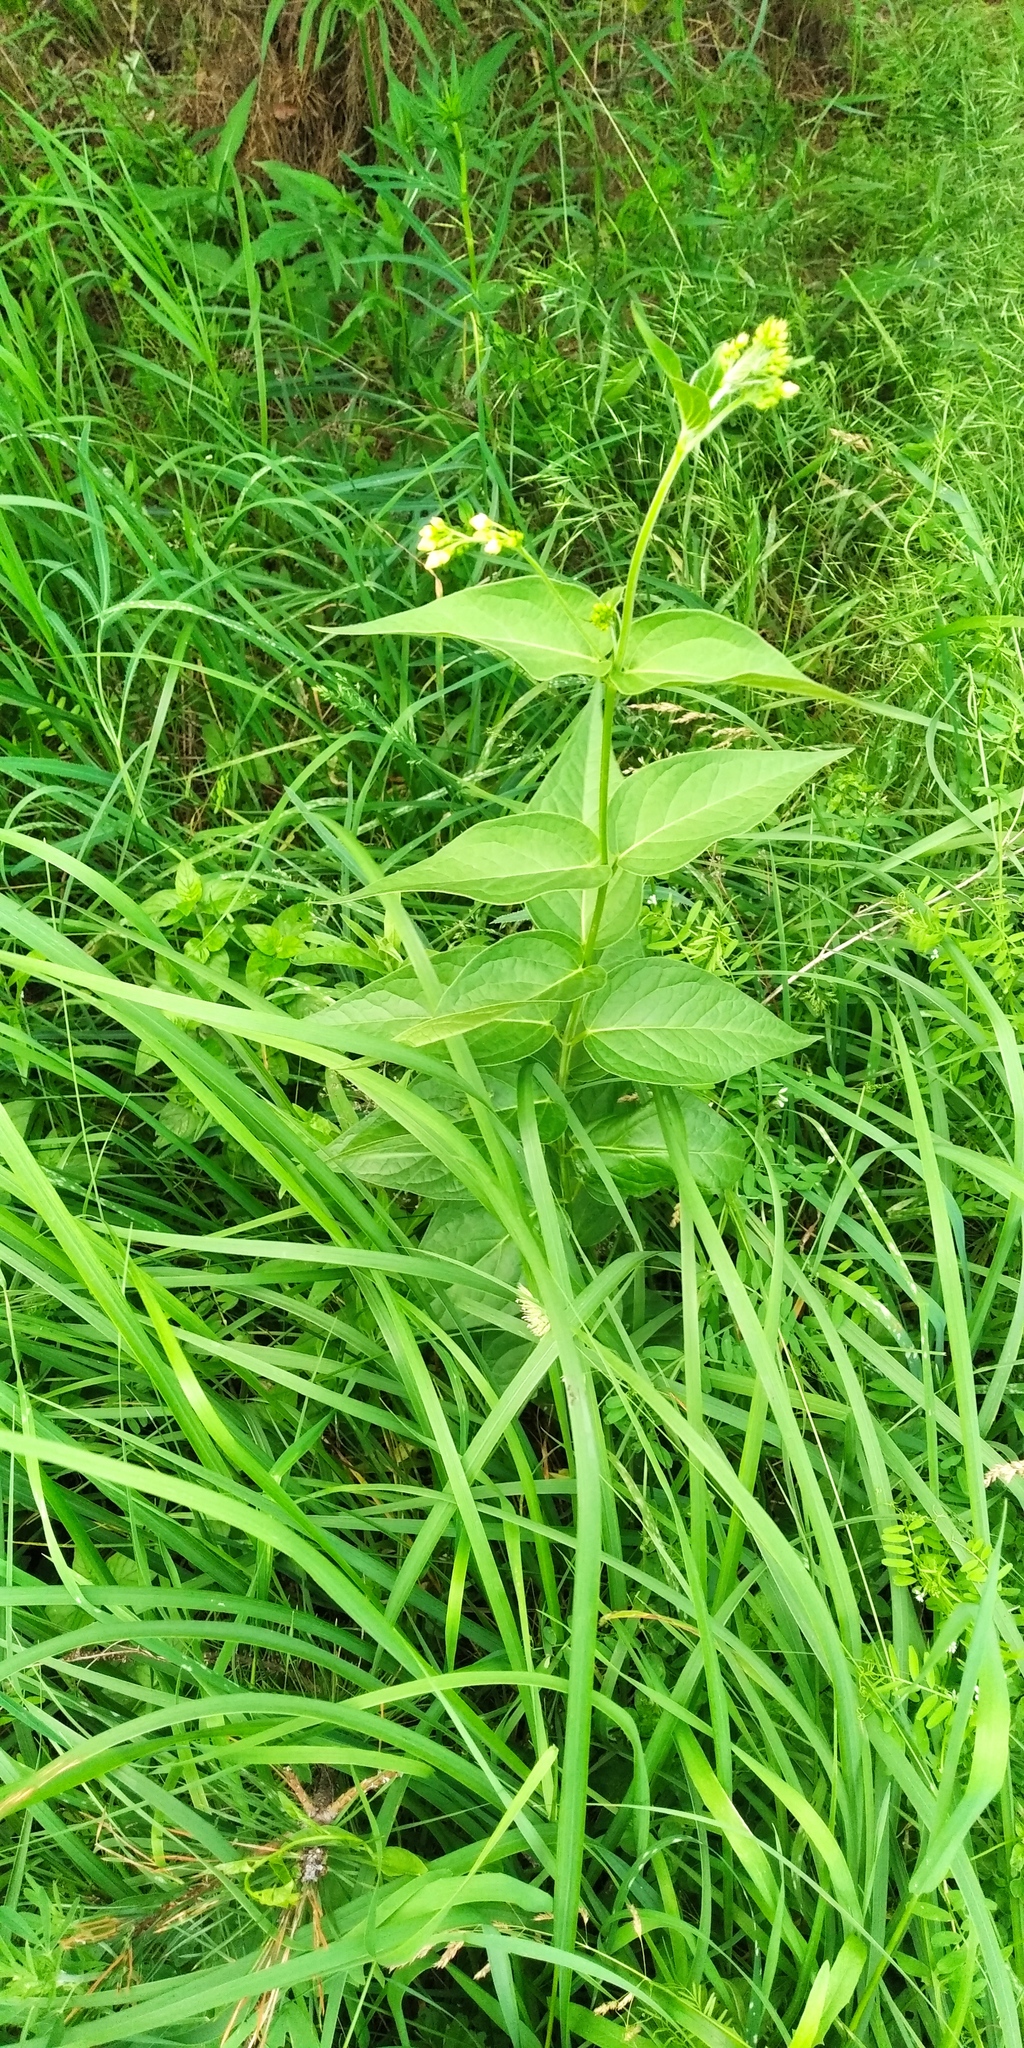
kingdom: Plantae
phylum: Tracheophyta
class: Magnoliopsida
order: Gentianales
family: Apocynaceae
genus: Vincetoxicum
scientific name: Vincetoxicum hirundinaria
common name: White swallowwort
